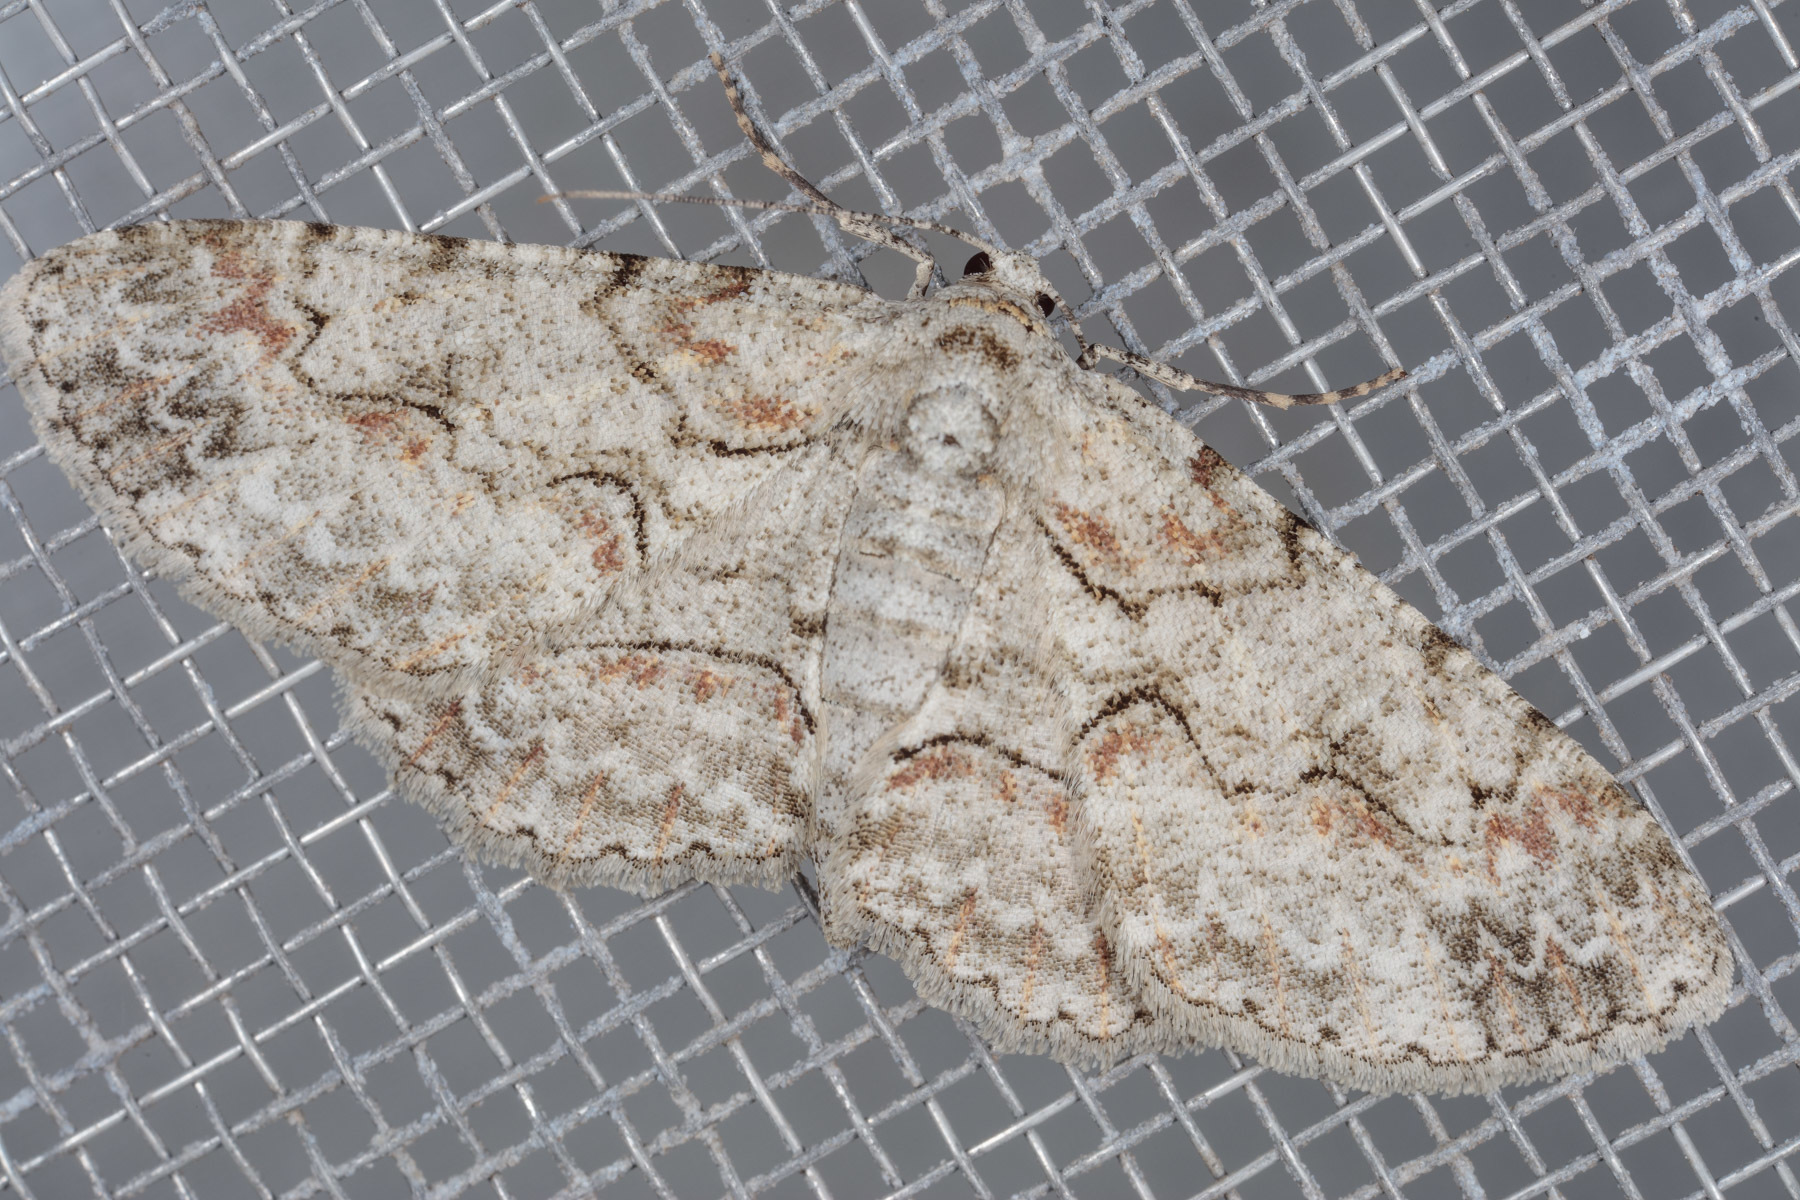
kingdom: Animalia
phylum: Arthropoda
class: Insecta
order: Lepidoptera
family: Geometridae
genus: Iridopsis
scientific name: Iridopsis defectaria
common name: Brown-shaded gray
